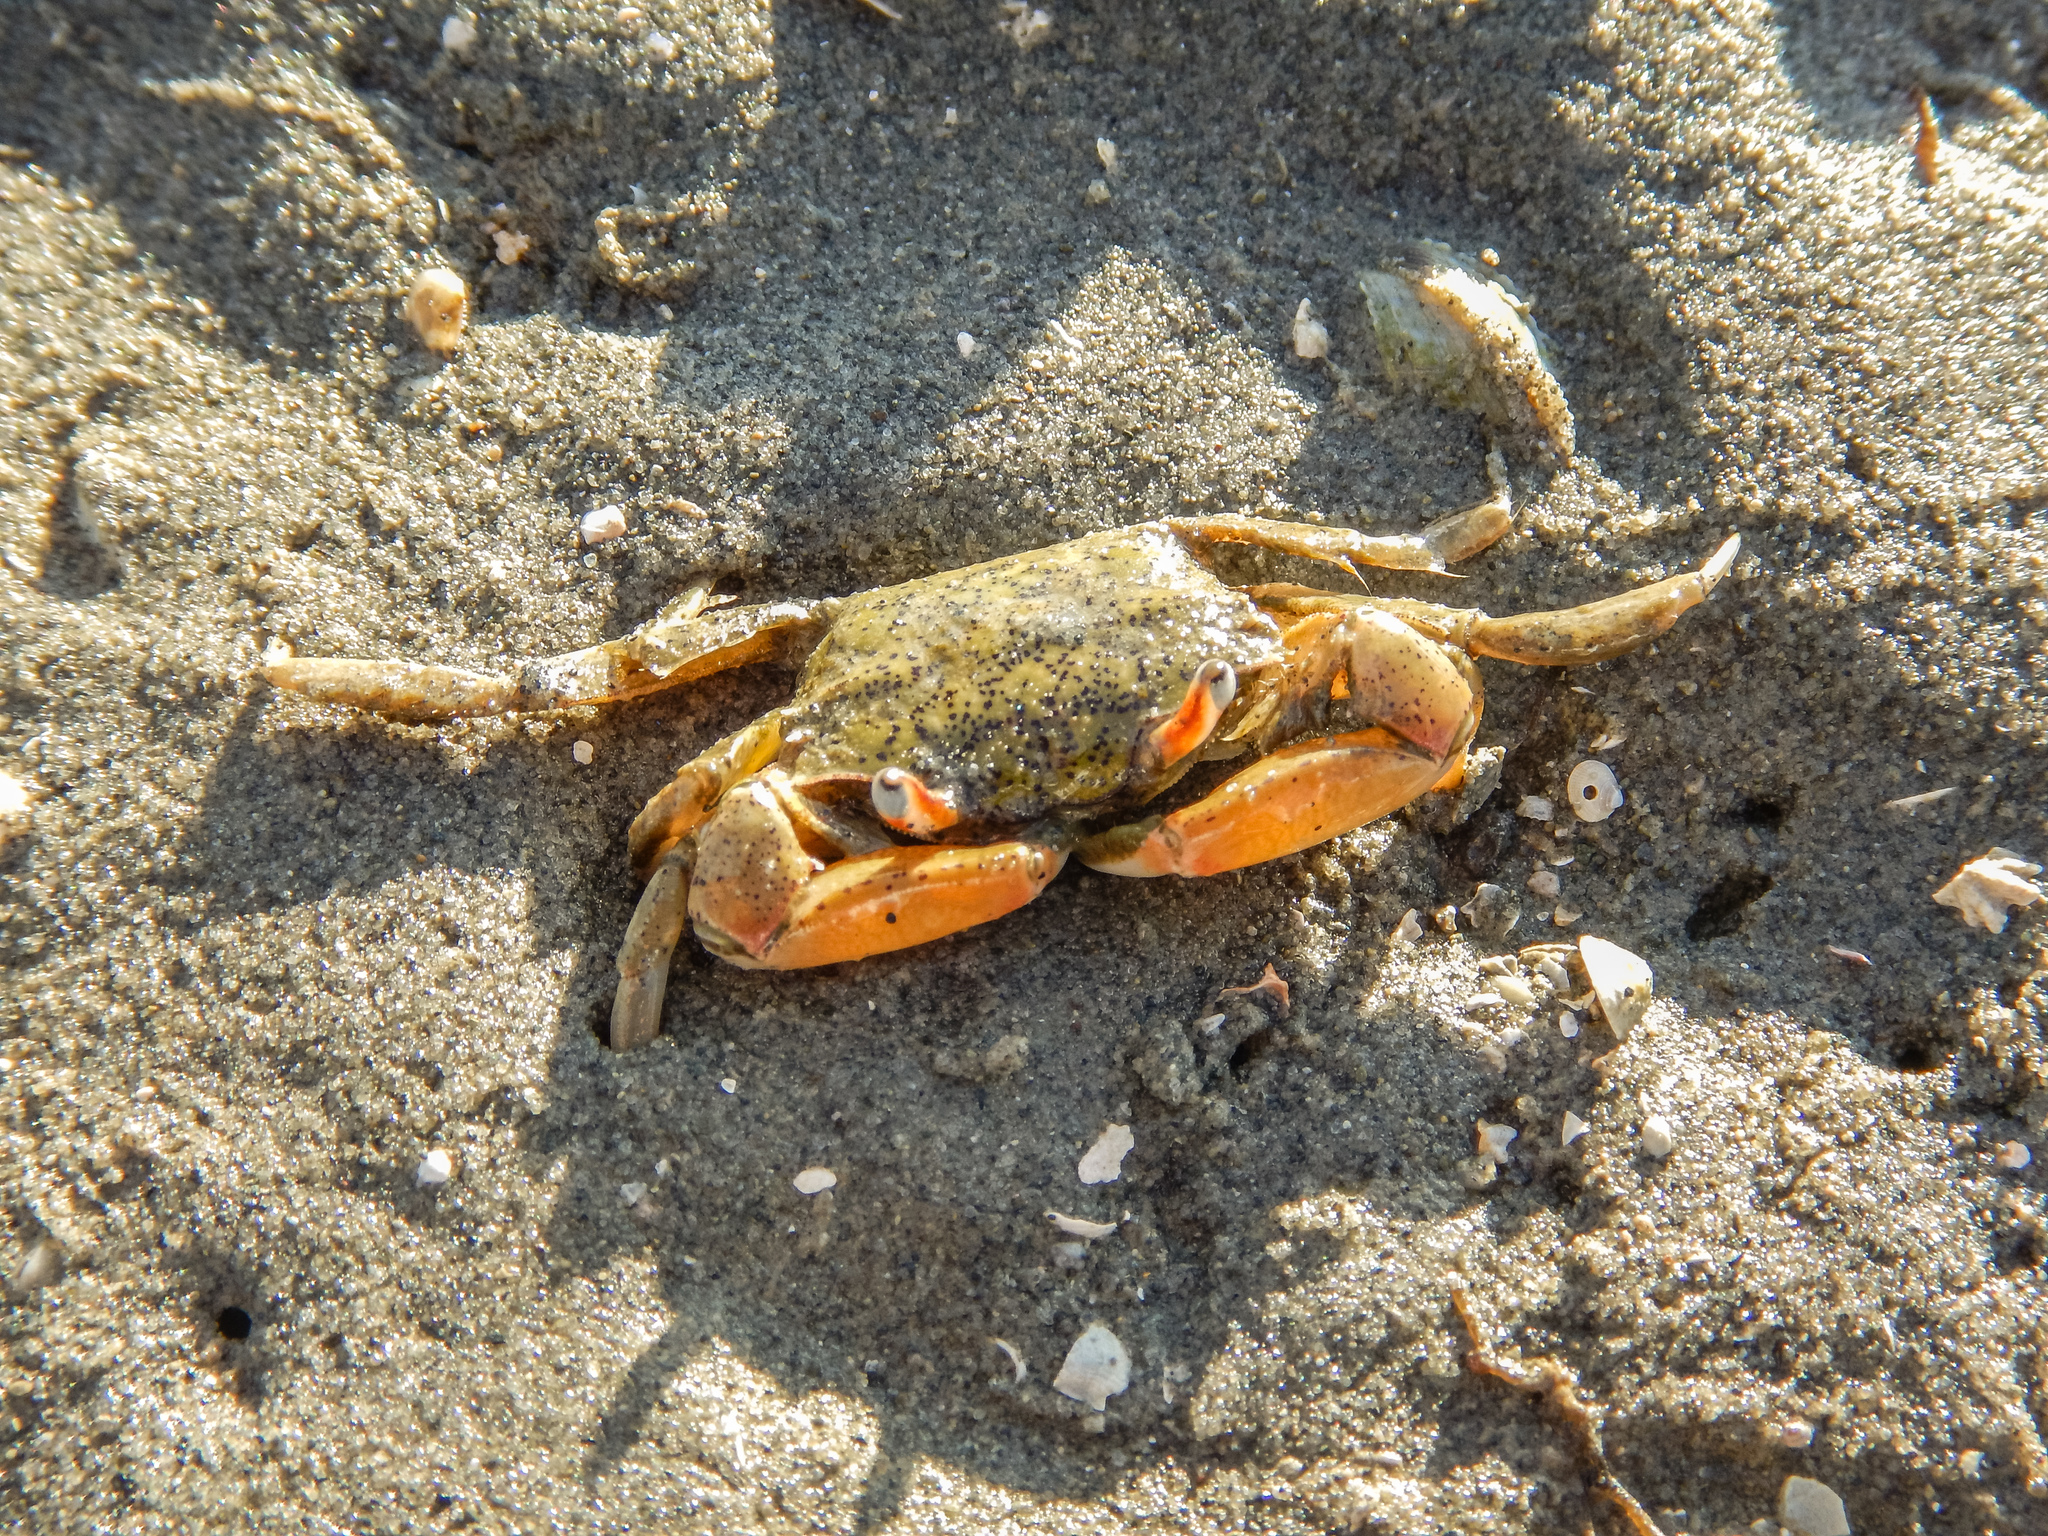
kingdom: Animalia
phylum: Arthropoda
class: Malacostraca
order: Decapoda
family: Macrophthalmidae
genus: Hemiplax
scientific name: Hemiplax hirtipes
